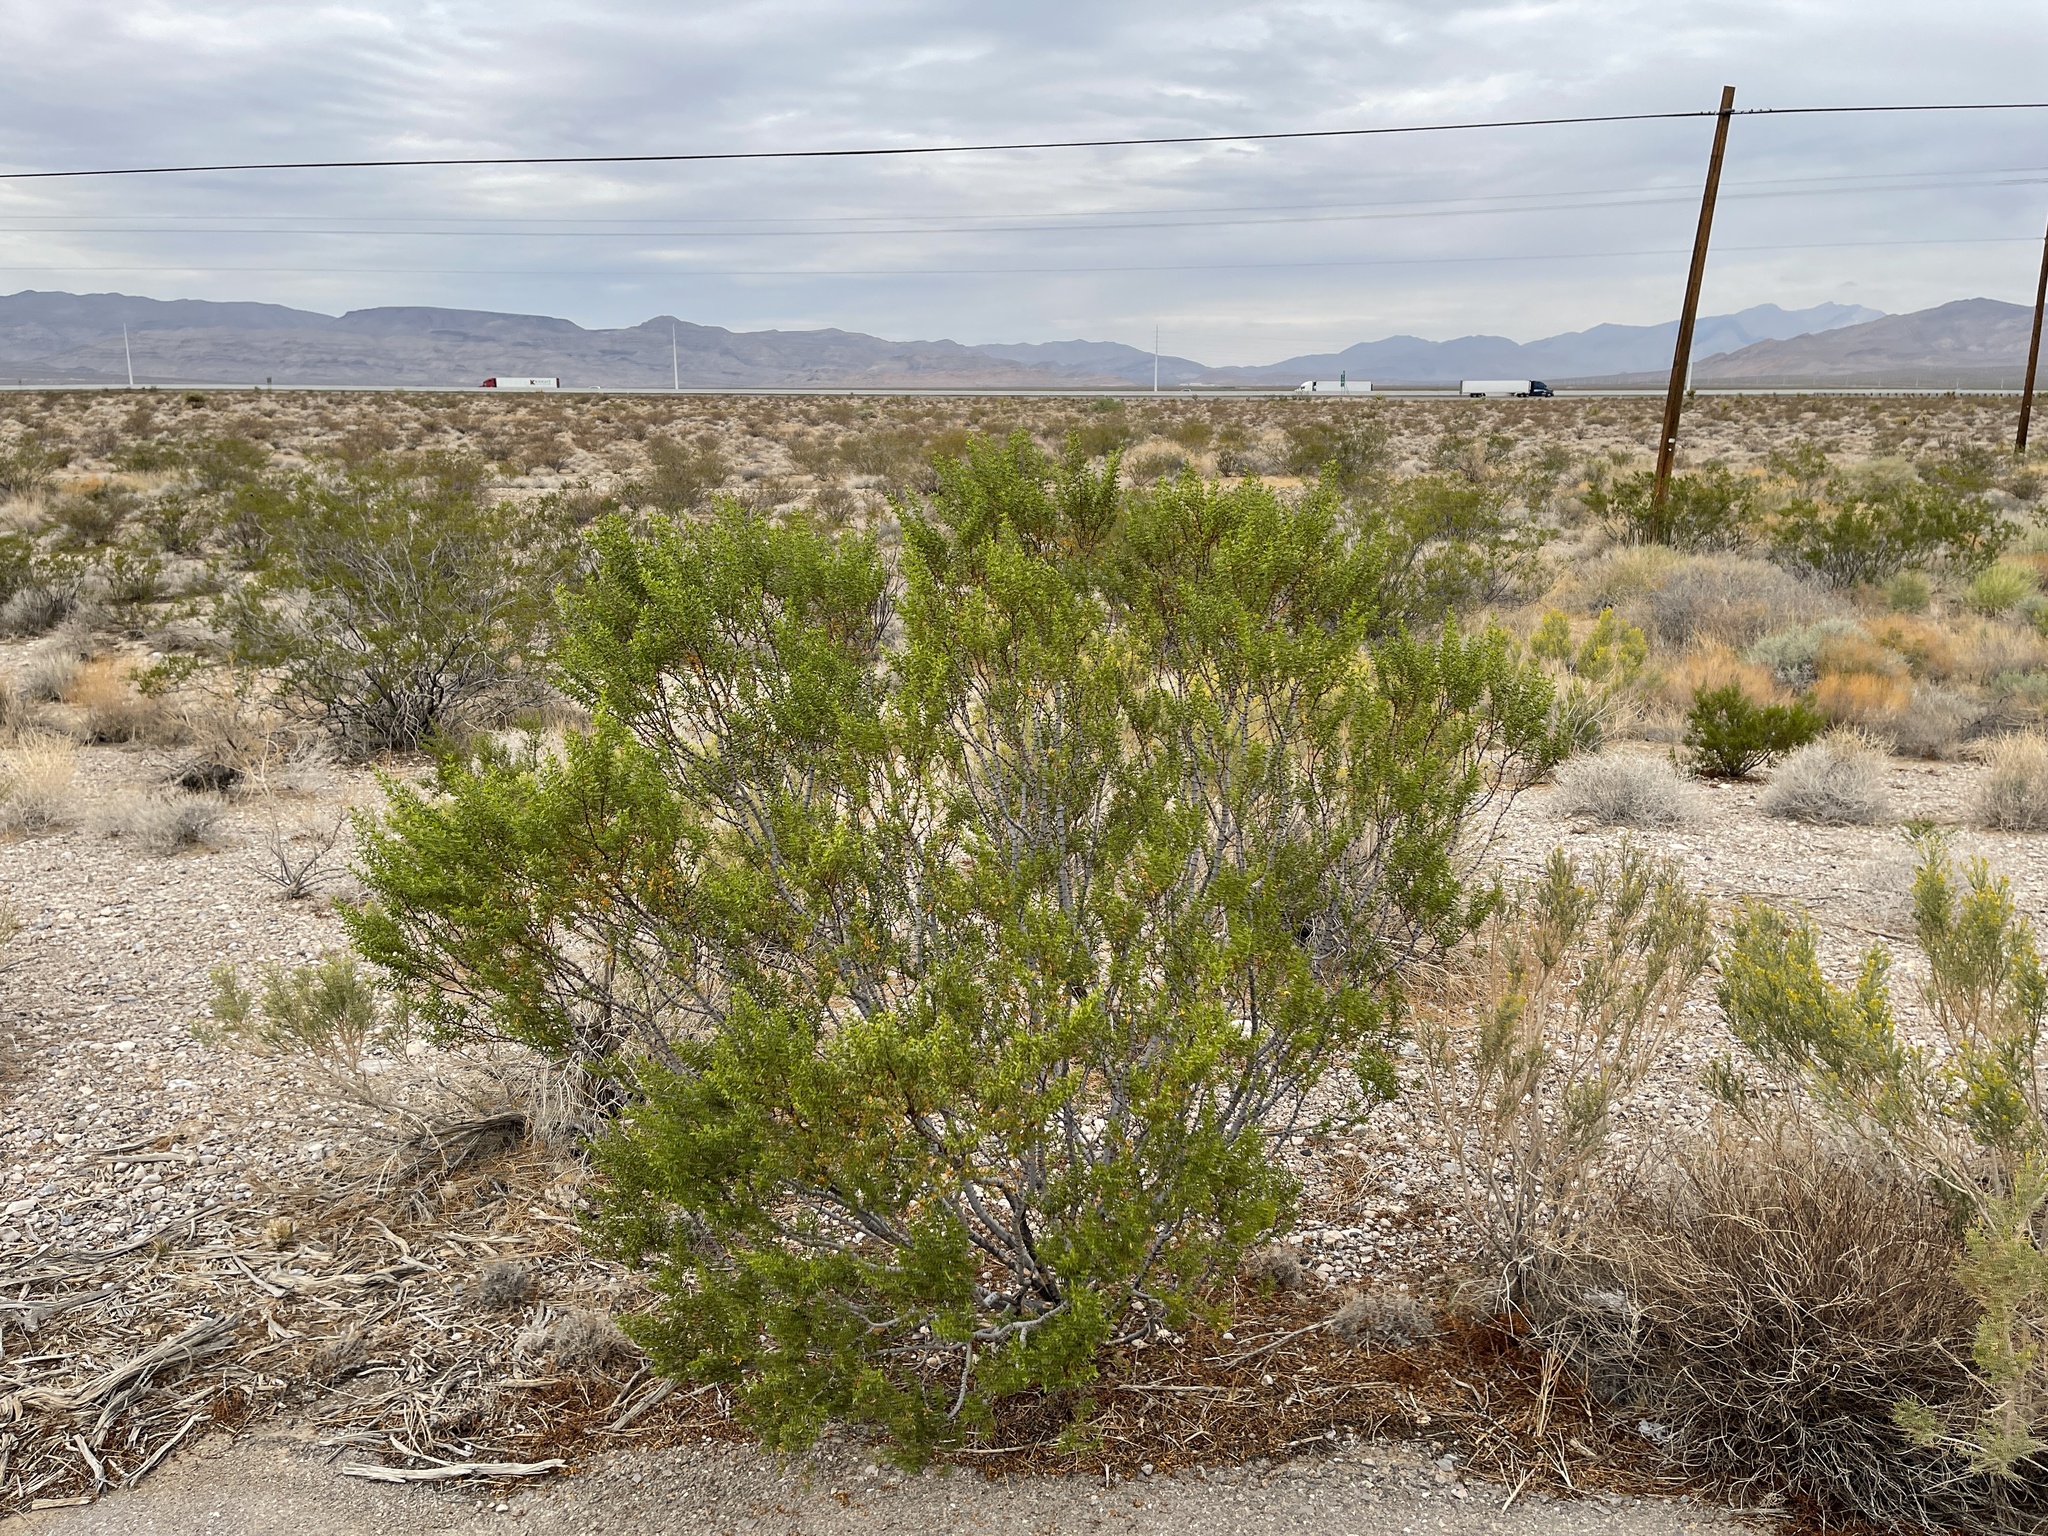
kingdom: Plantae
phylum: Tracheophyta
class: Magnoliopsida
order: Zygophyllales
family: Zygophyllaceae
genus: Larrea
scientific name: Larrea tridentata
